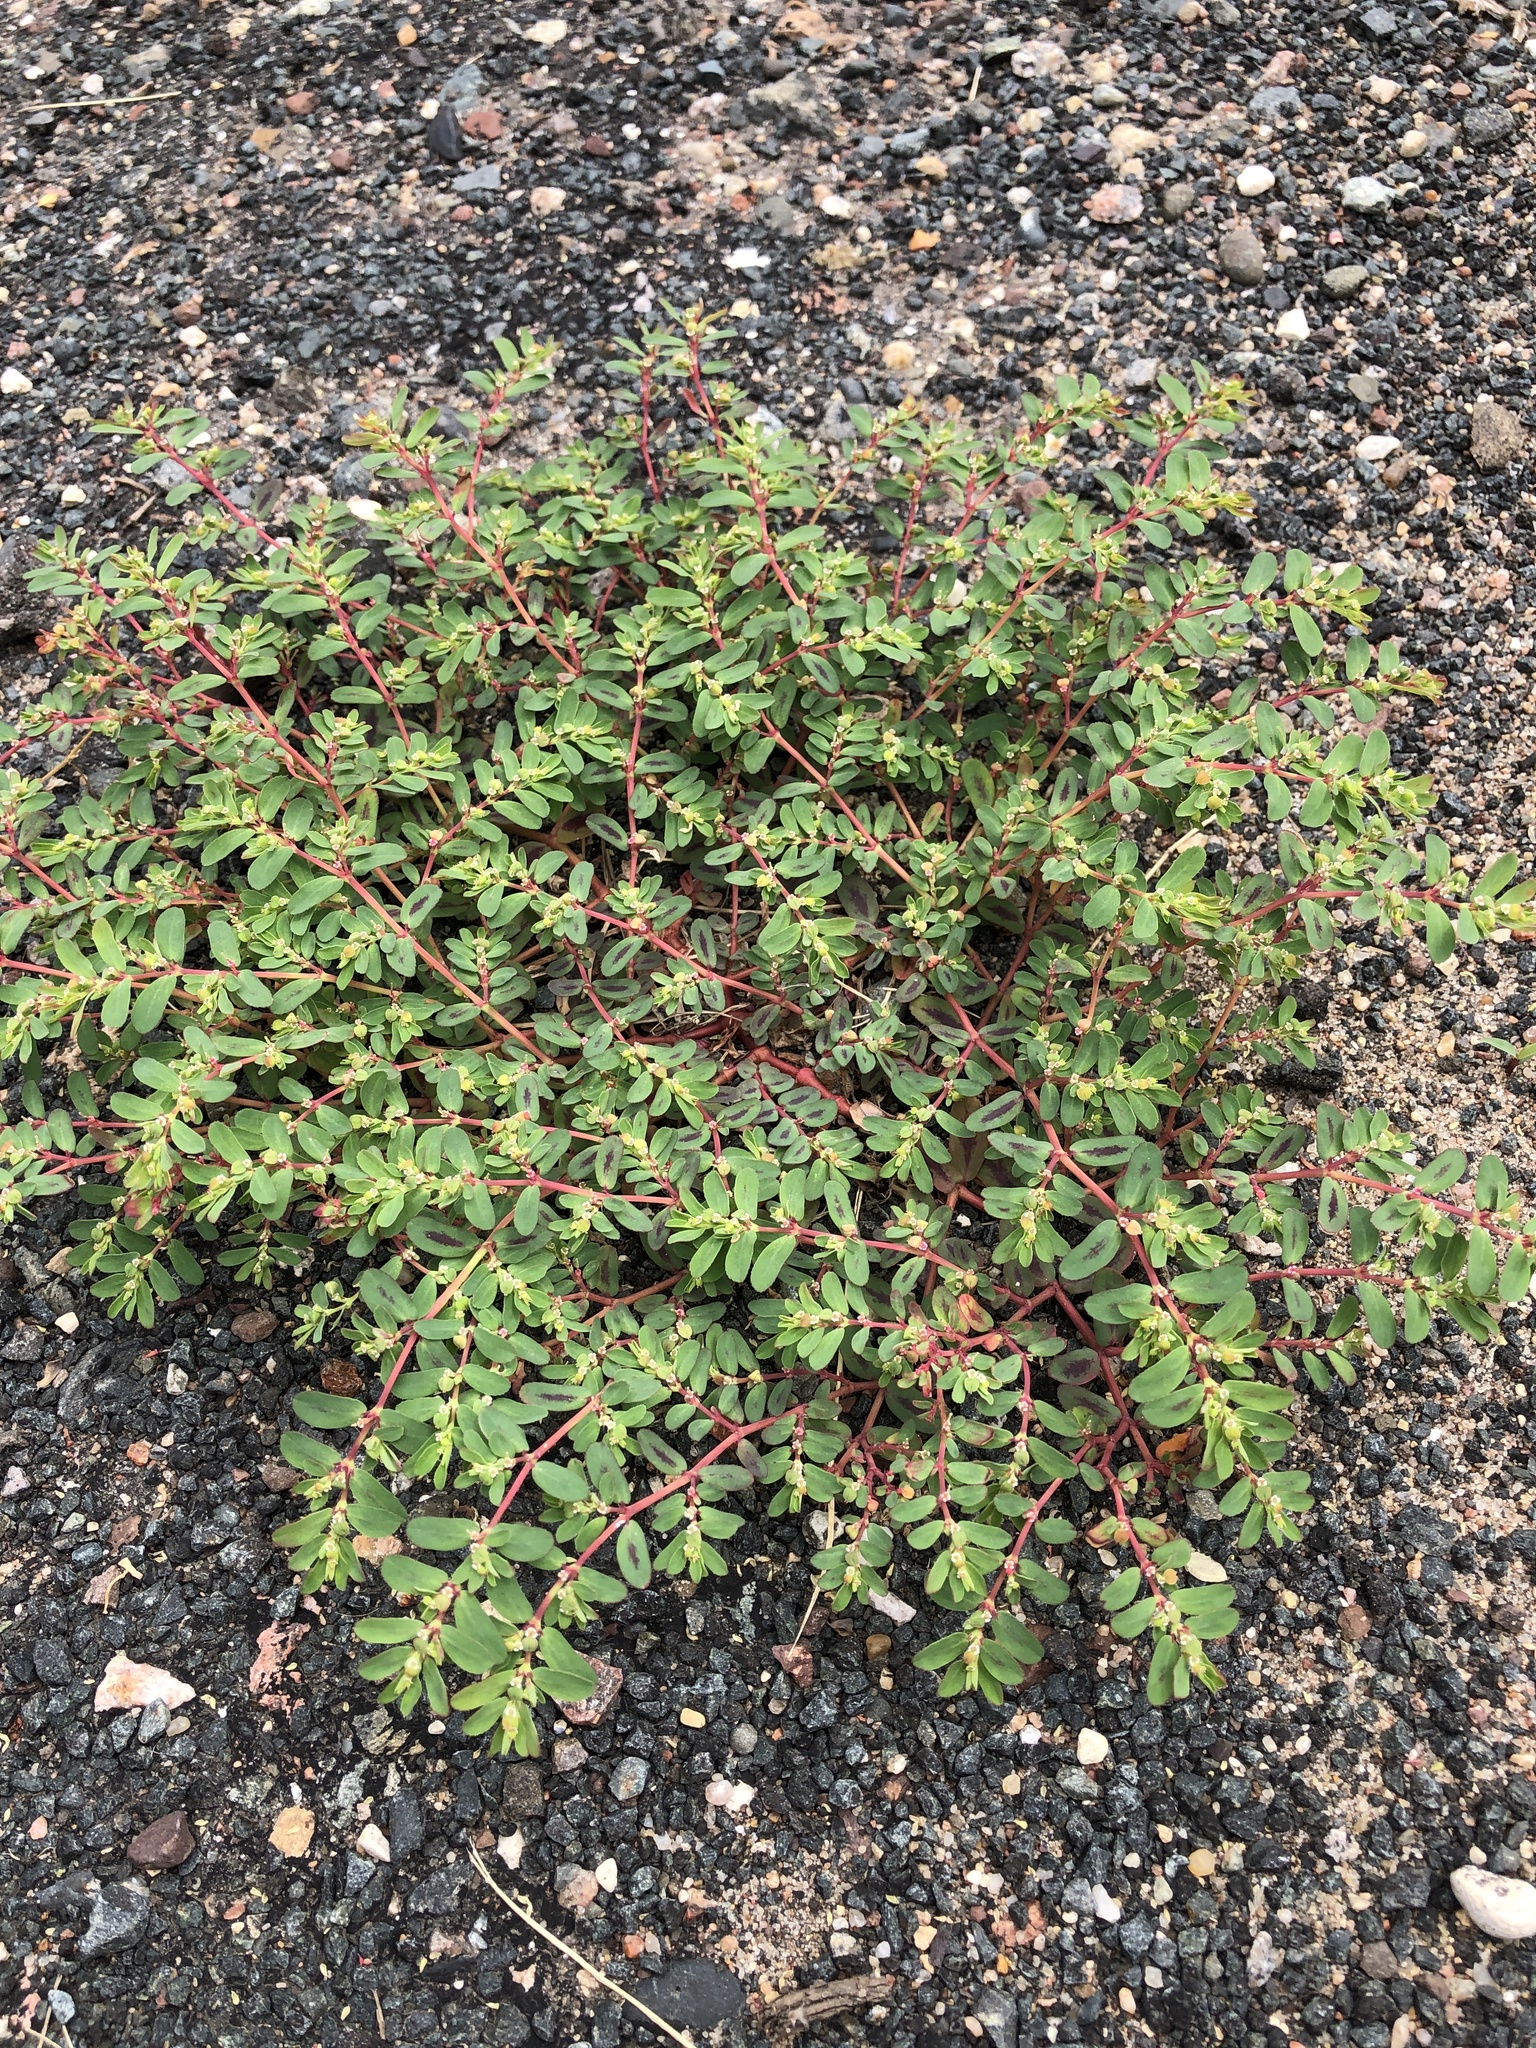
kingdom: Plantae
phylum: Tracheophyta
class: Magnoliopsida
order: Malpighiales
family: Euphorbiaceae
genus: Euphorbia
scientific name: Euphorbia serpillifolia
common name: Thyme-leaf spurge
